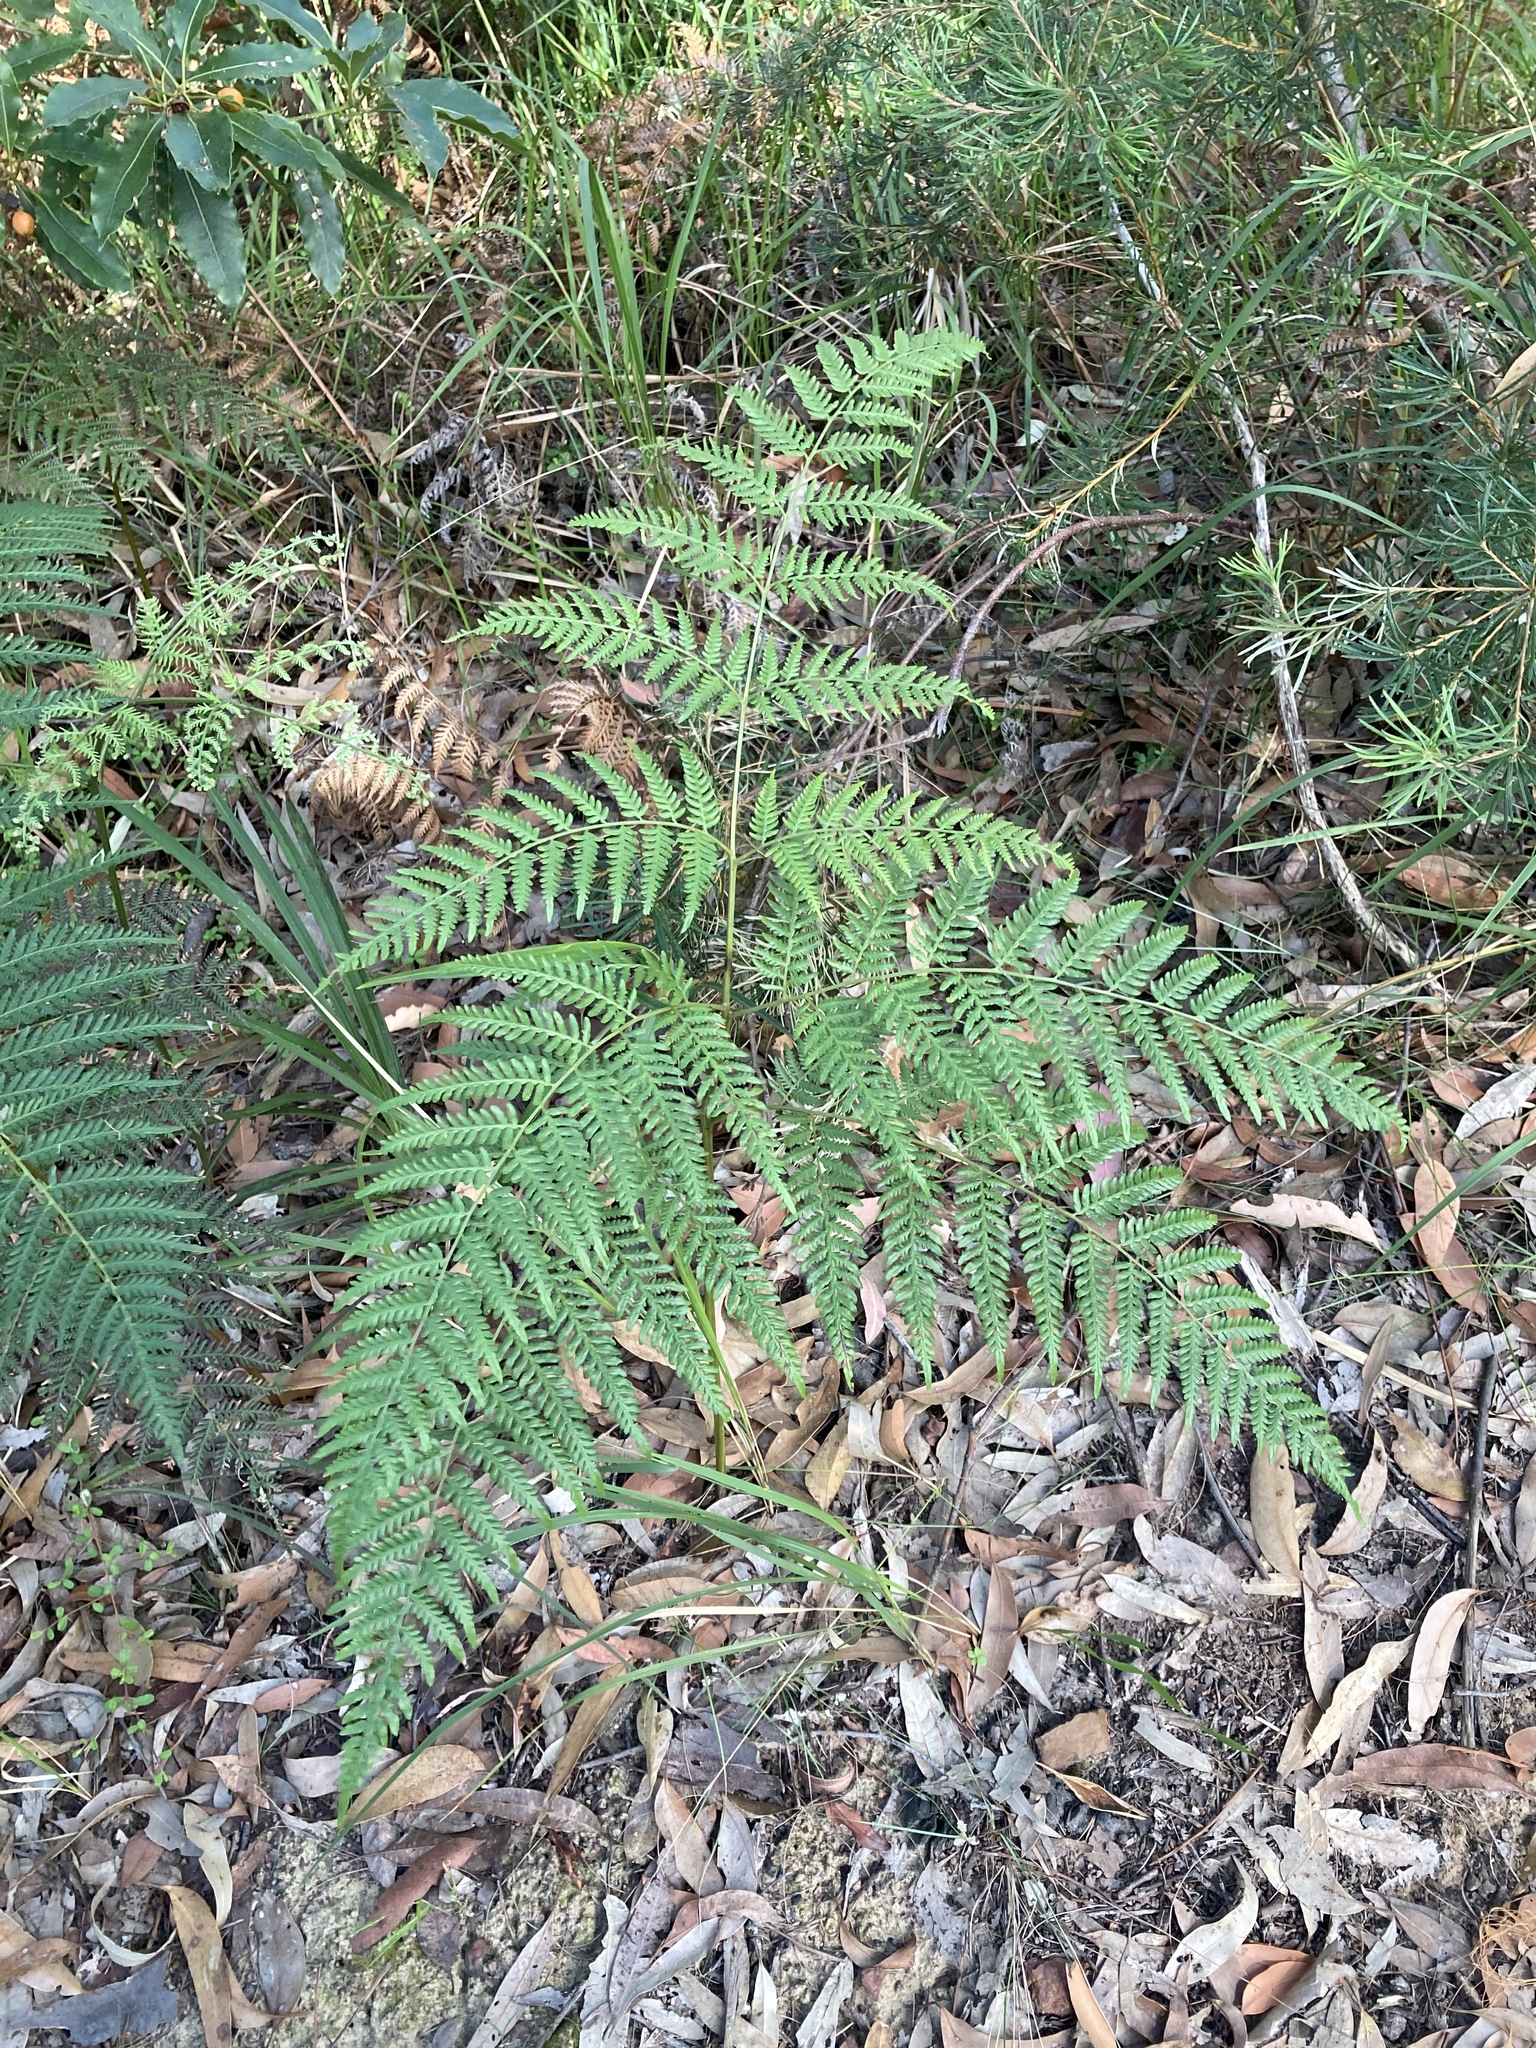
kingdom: Plantae
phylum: Tracheophyta
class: Polypodiopsida
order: Polypodiales
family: Dennstaedtiaceae
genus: Pteridium
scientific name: Pteridium esculentum
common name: Bracken fern
